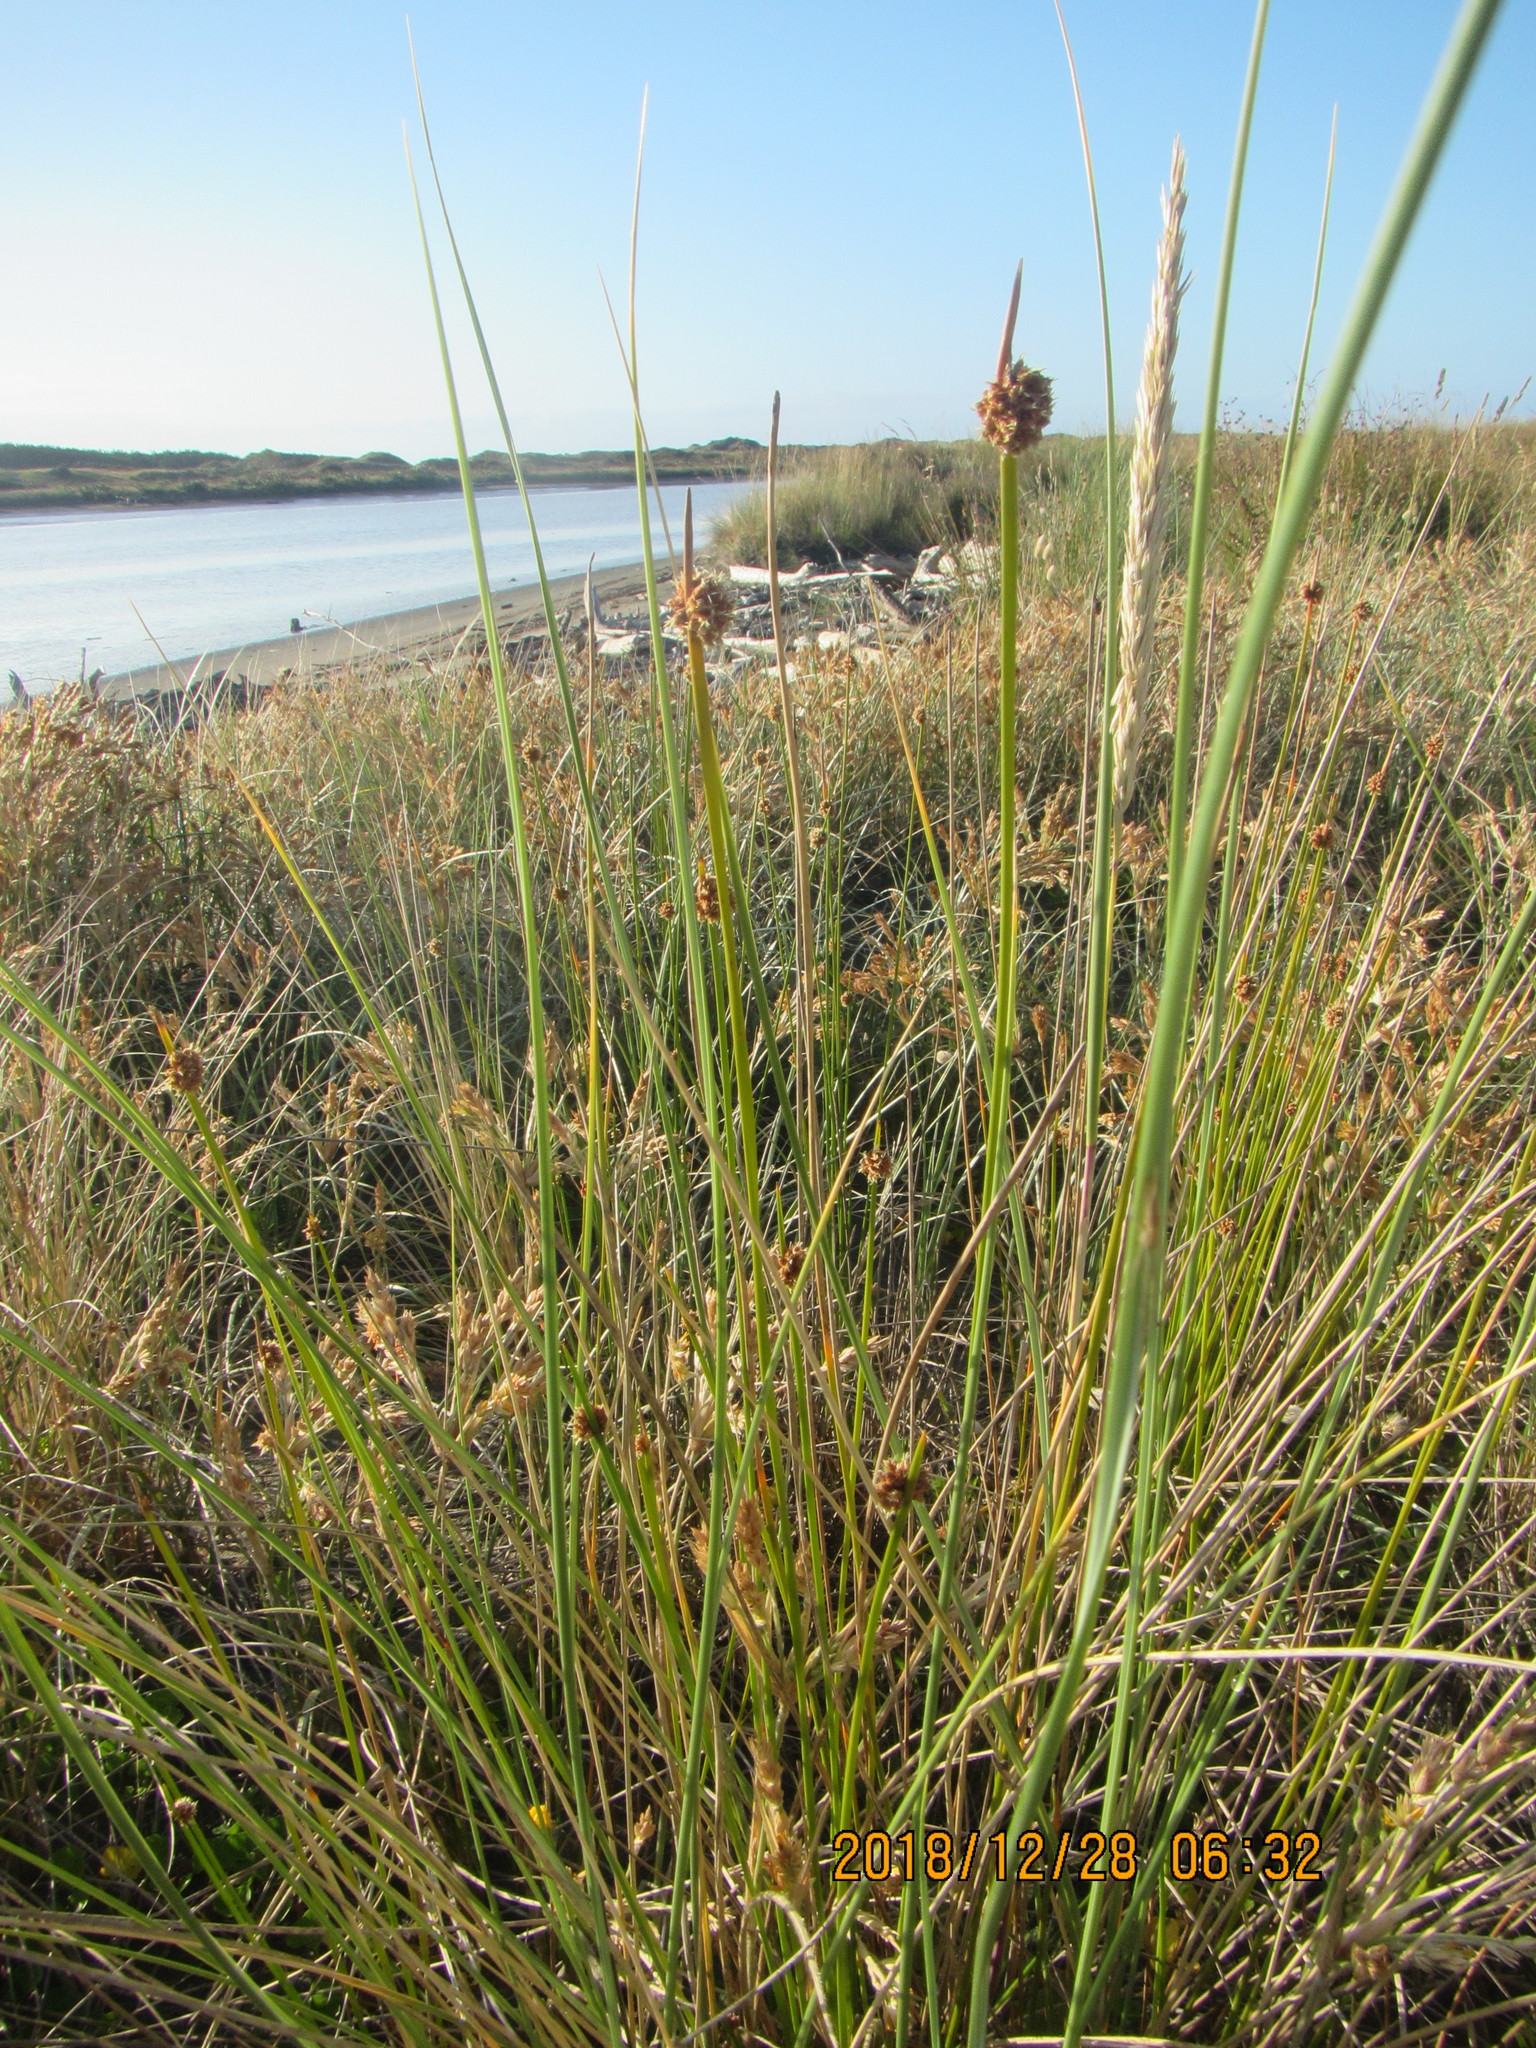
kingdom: Plantae
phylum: Tracheophyta
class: Liliopsida
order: Poales
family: Cyperaceae
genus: Ficinia
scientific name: Ficinia nodosa
